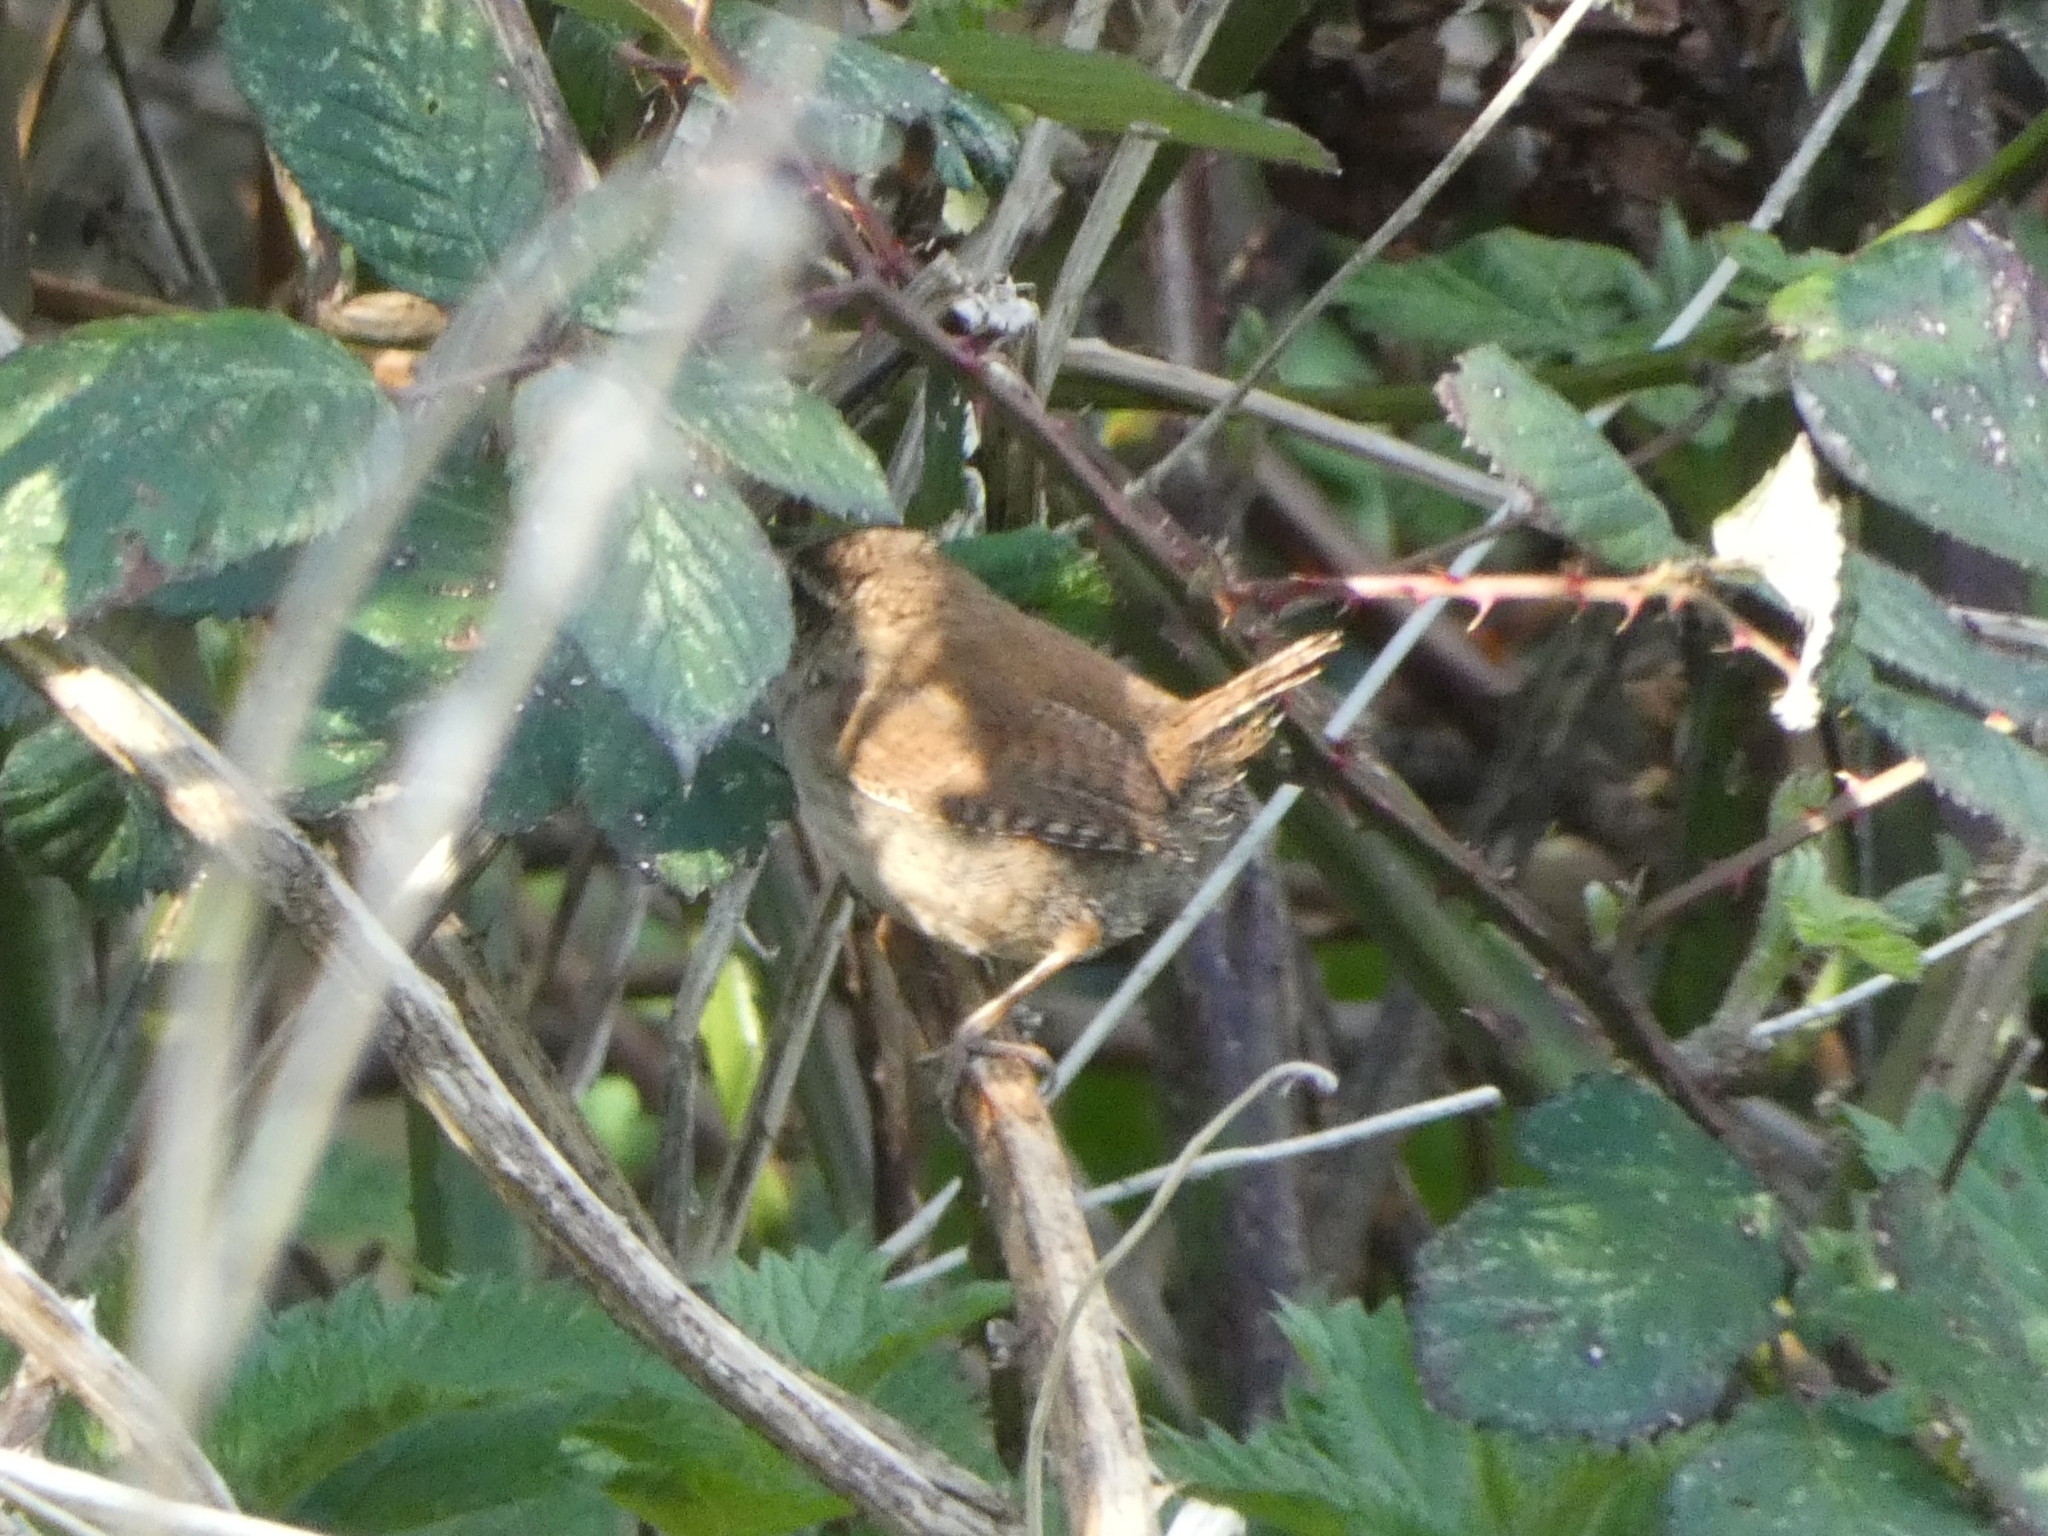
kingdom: Animalia
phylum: Chordata
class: Aves
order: Passeriformes
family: Troglodytidae
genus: Troglodytes
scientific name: Troglodytes troglodytes
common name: Eurasian wren
